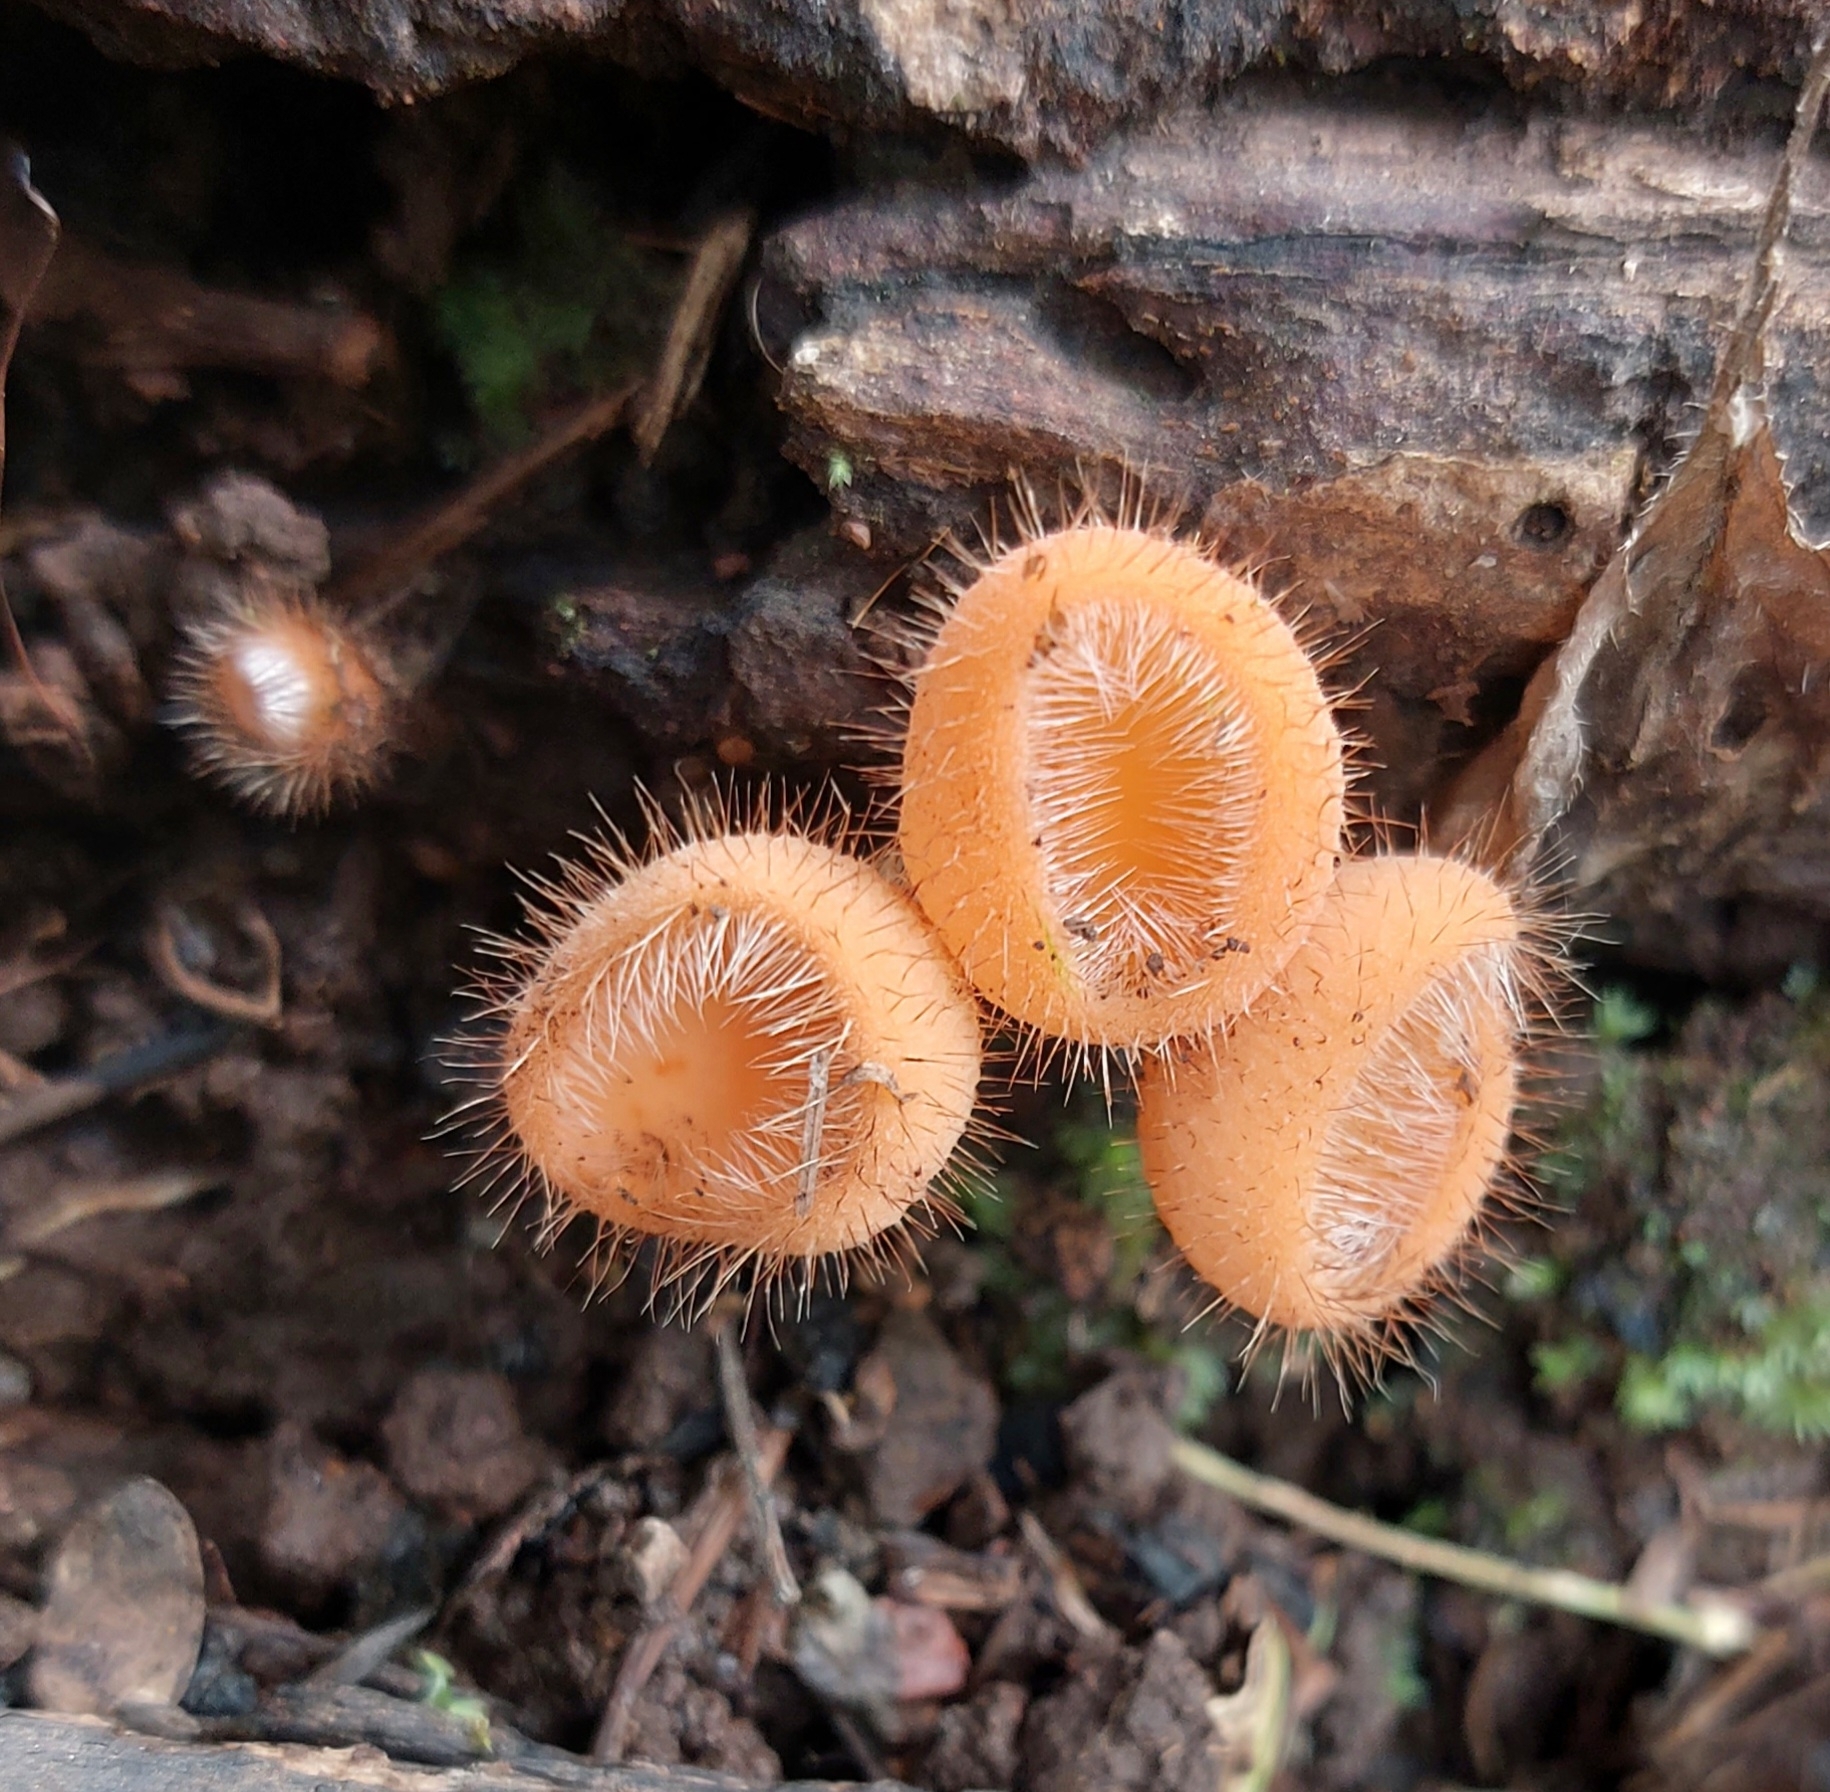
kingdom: Fungi
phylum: Ascomycota
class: Pezizomycetes
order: Pezizales
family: Sarcoscyphaceae
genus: Cookeina
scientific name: Cookeina tricholoma
